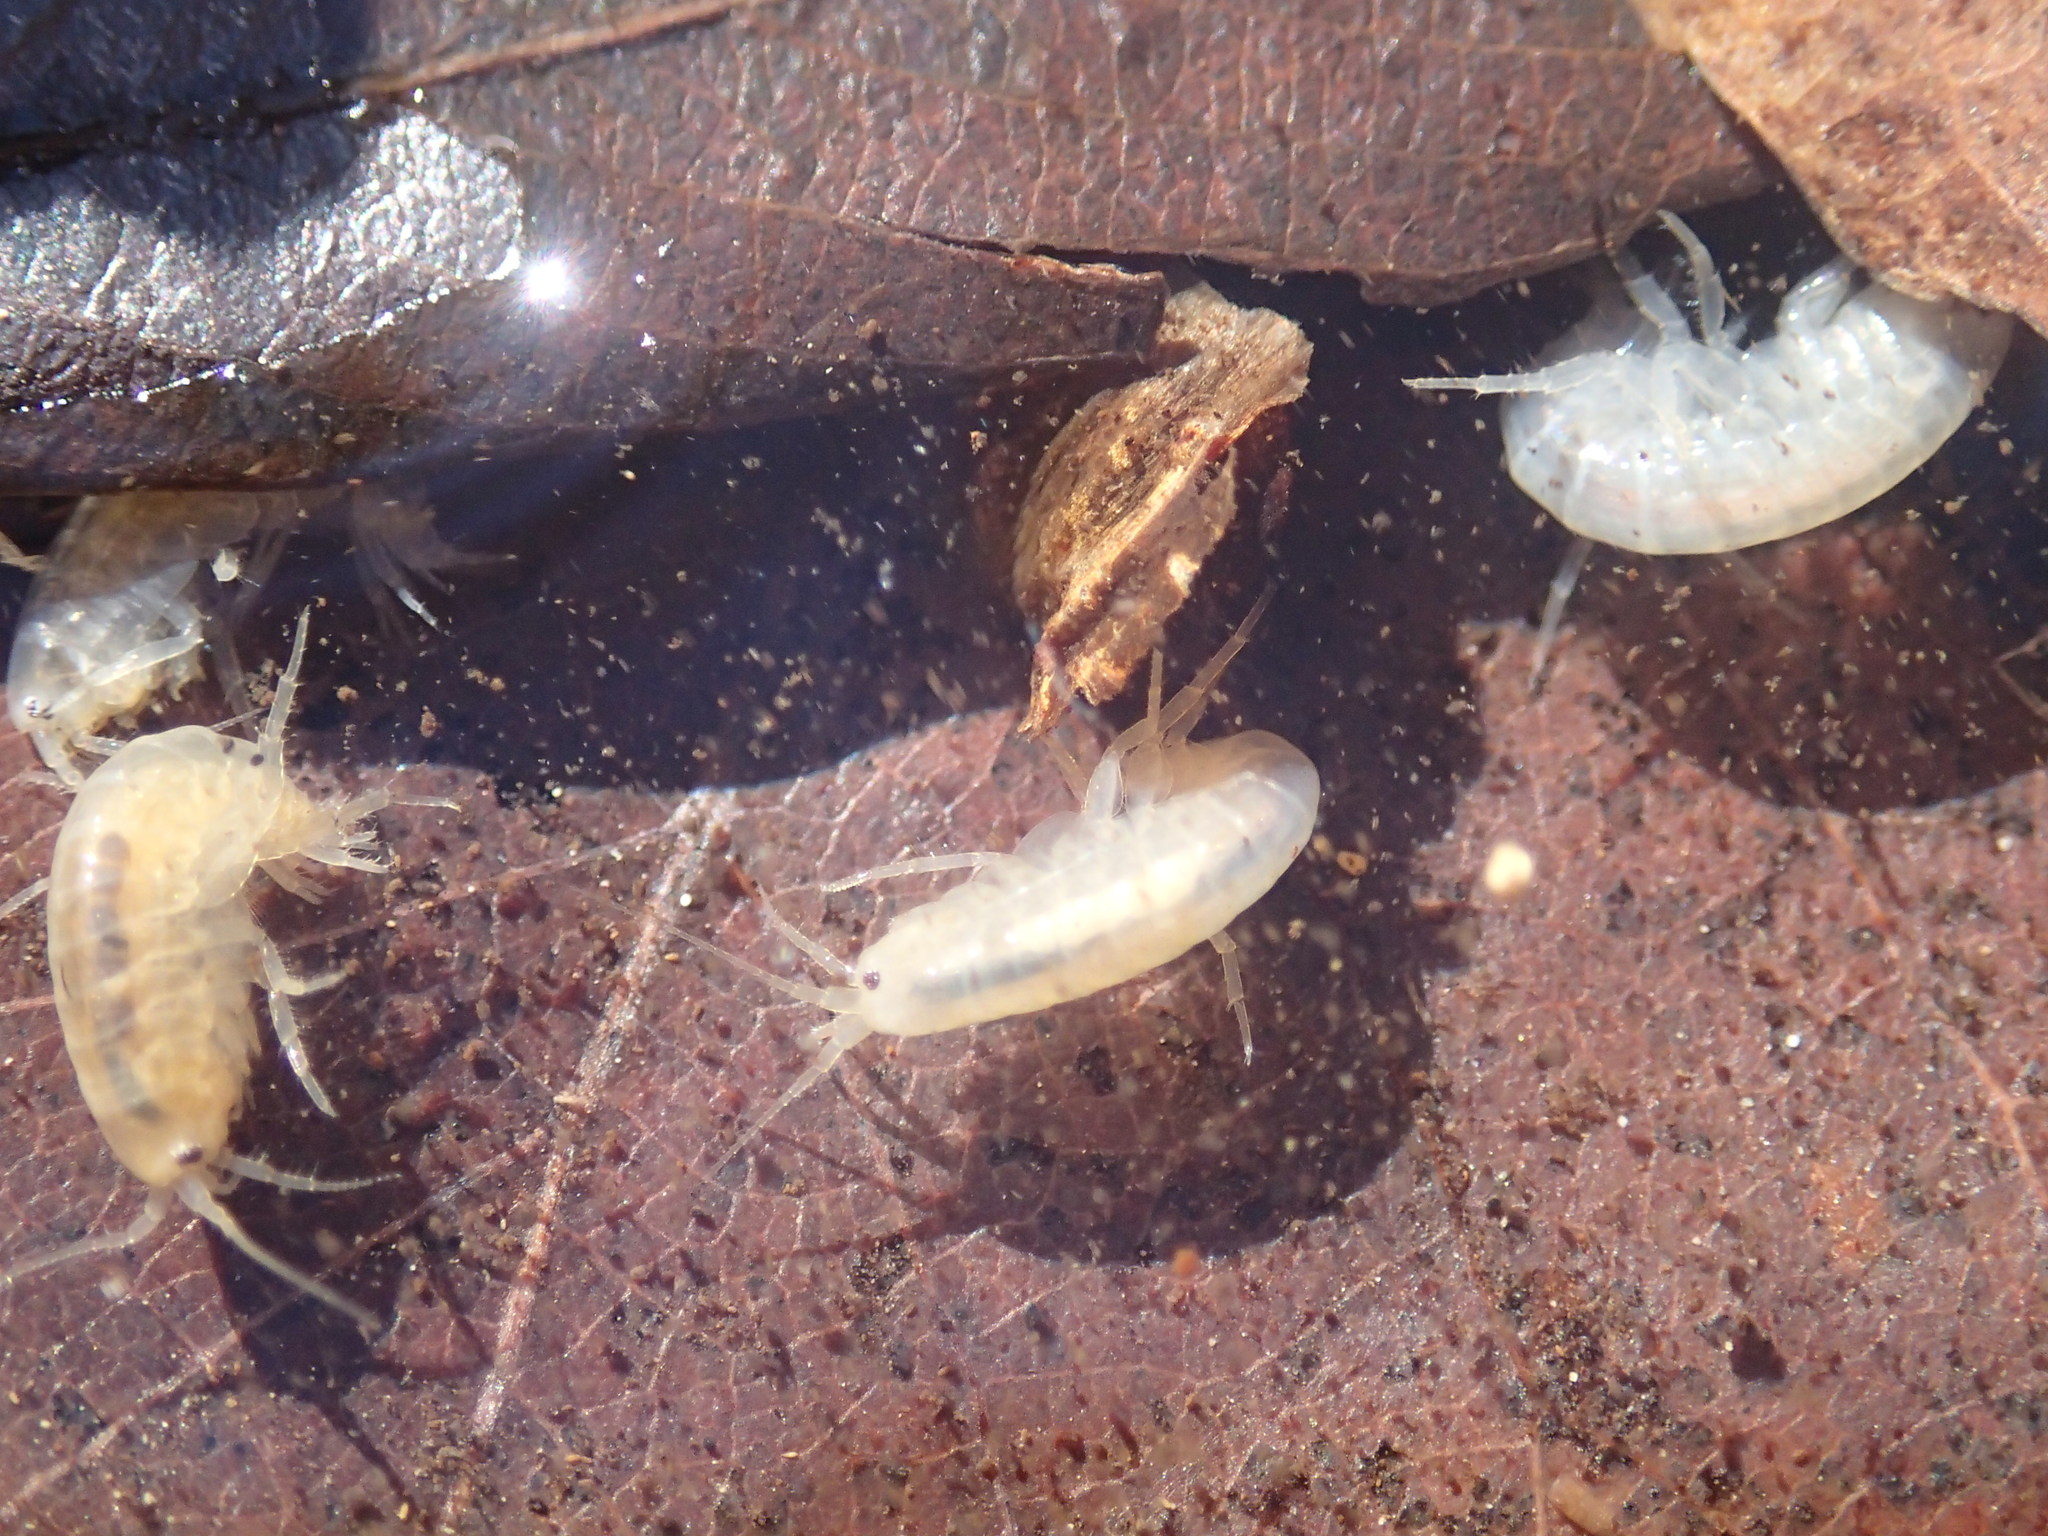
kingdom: Animalia
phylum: Arthropoda
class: Malacostraca
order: Amphipoda
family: Gammaridae
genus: Gammarus
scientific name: Gammarus elvirae
